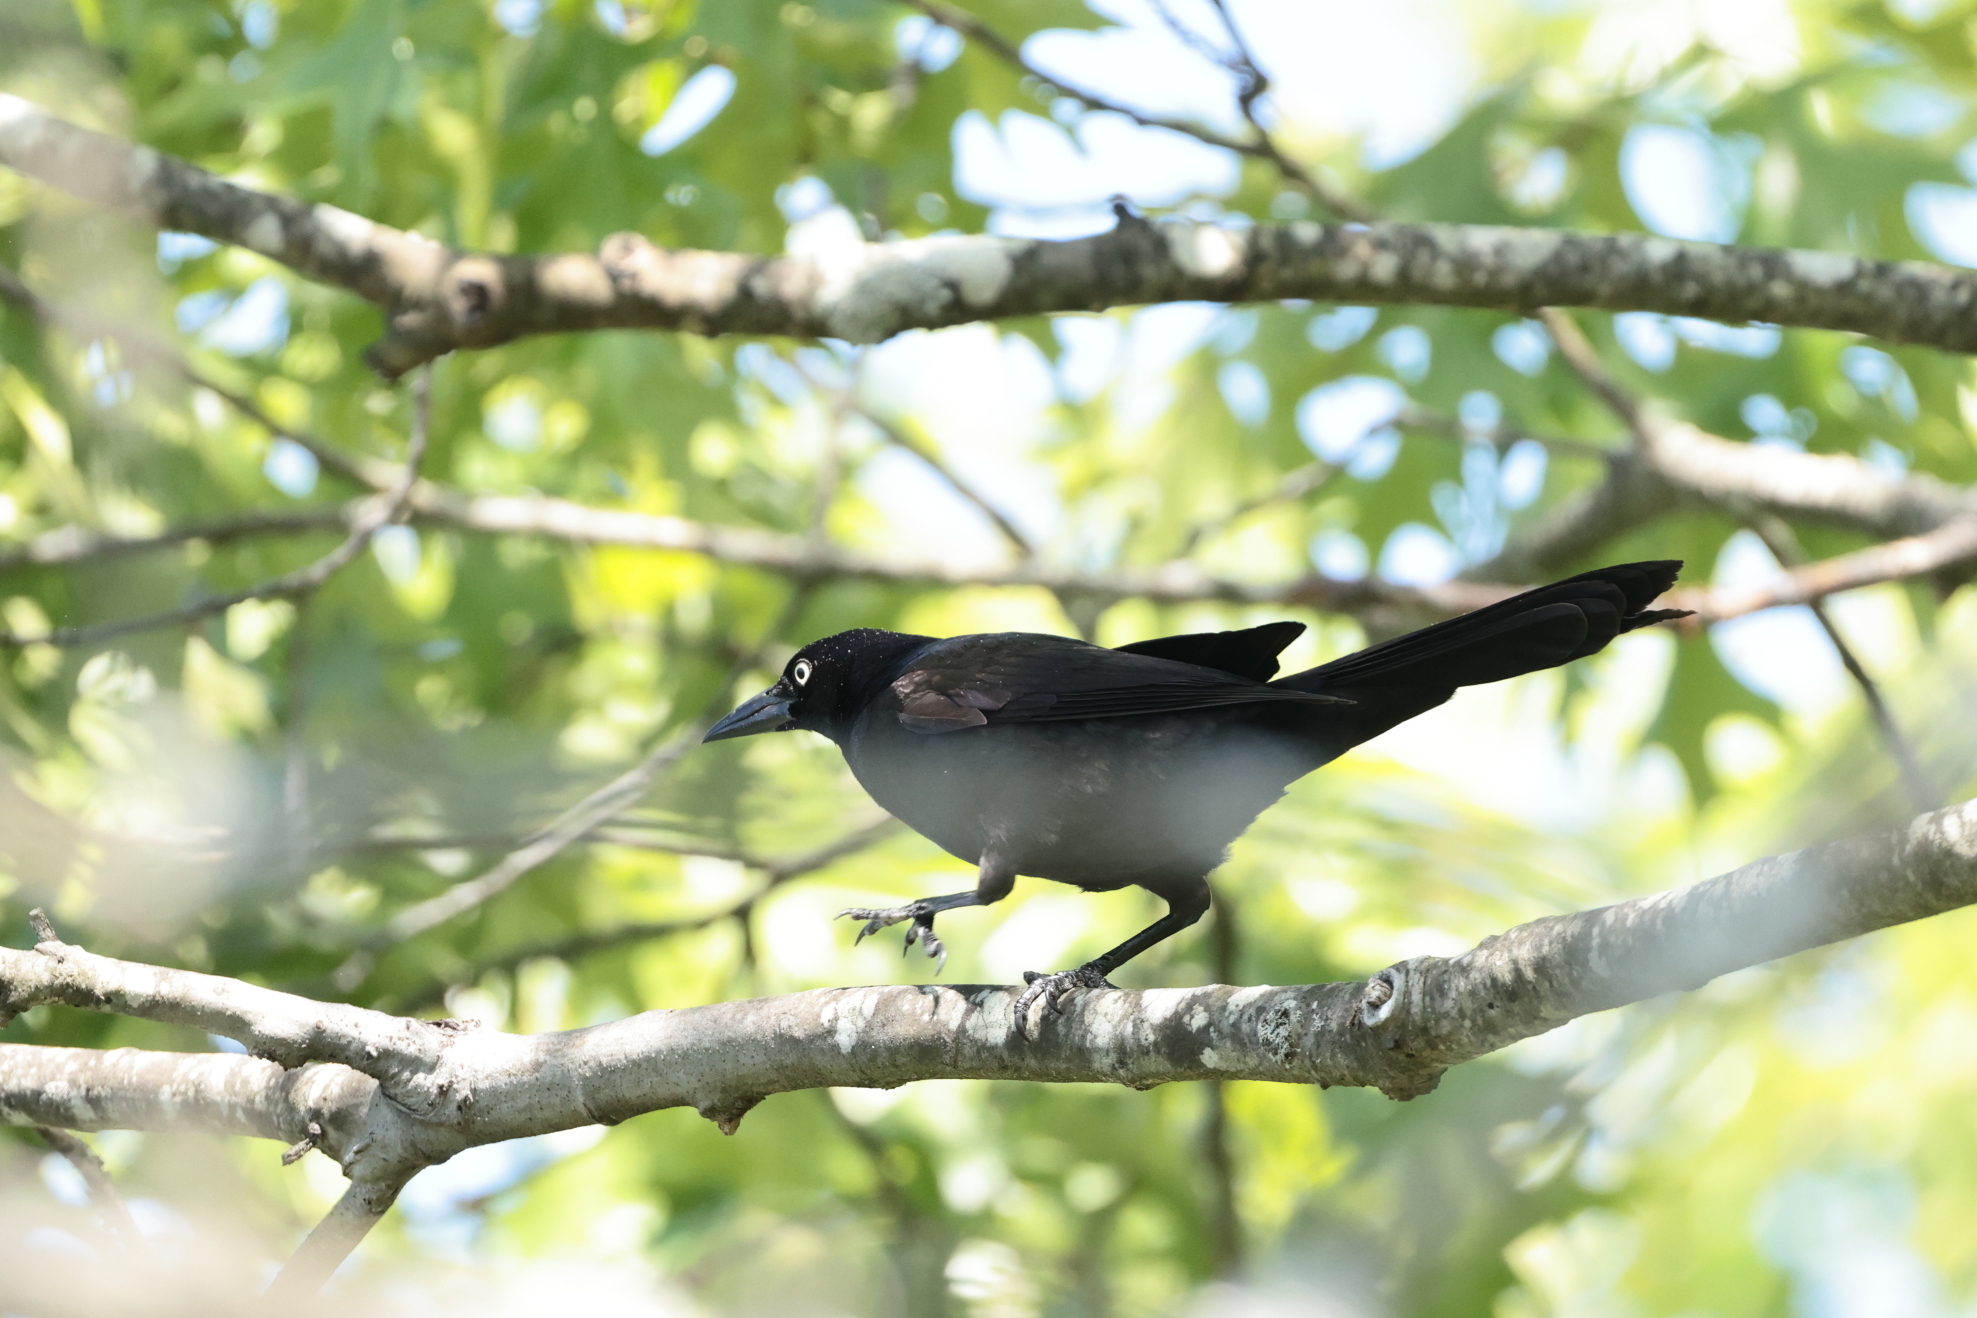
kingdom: Animalia
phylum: Chordata
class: Aves
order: Passeriformes
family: Icteridae
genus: Quiscalus
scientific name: Quiscalus quiscula
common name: Common grackle
